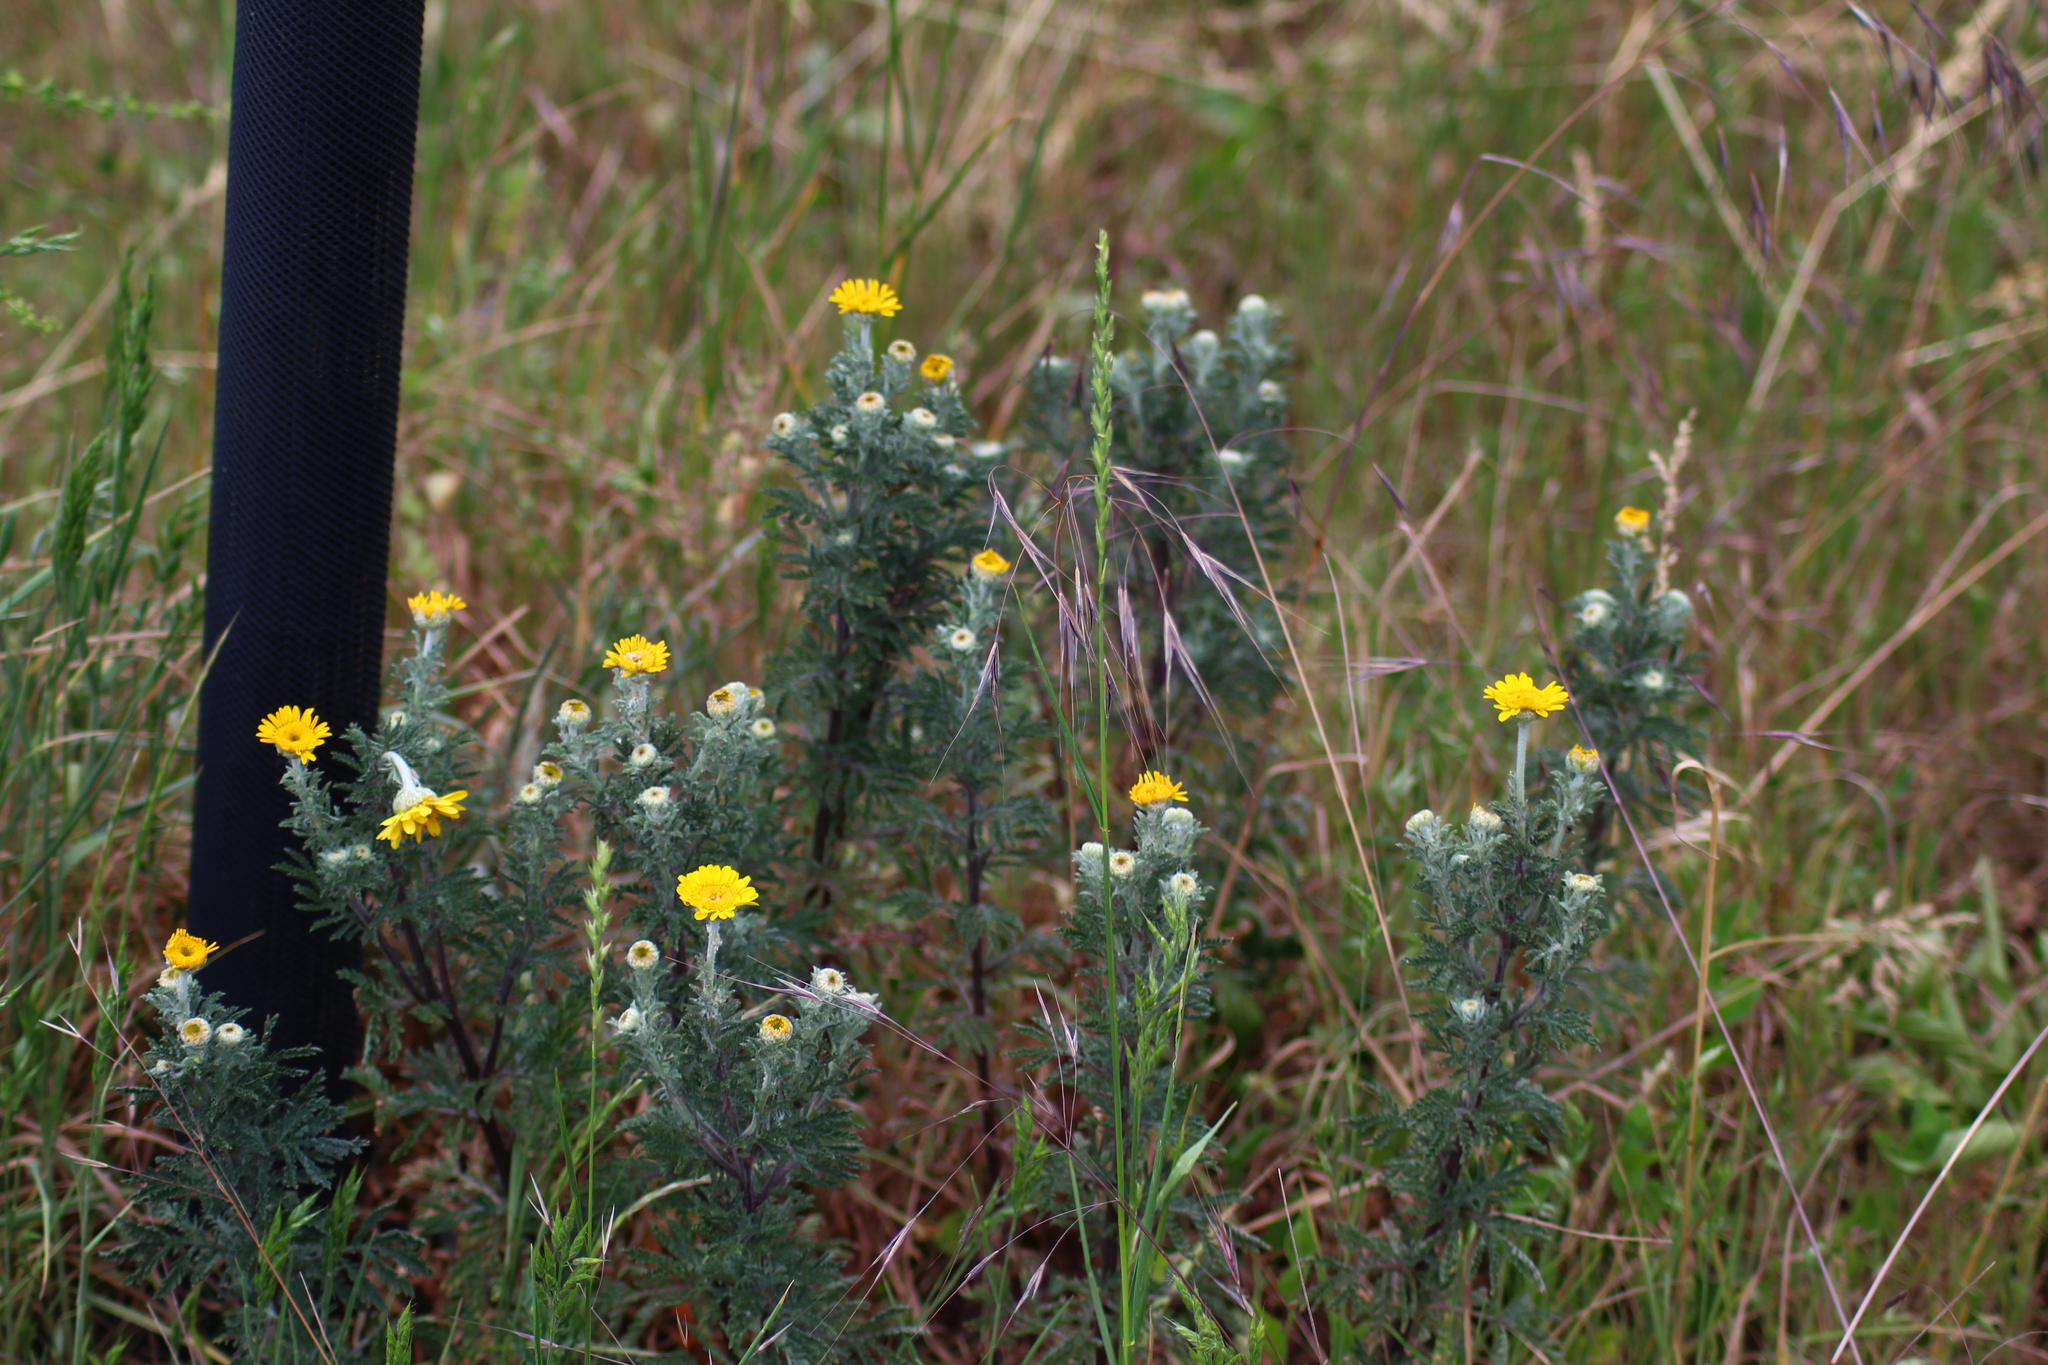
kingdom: Plantae
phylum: Tracheophyta
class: Magnoliopsida
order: Asterales
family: Asteraceae
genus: Cota
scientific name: Cota tinctoria
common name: Golden chamomile
